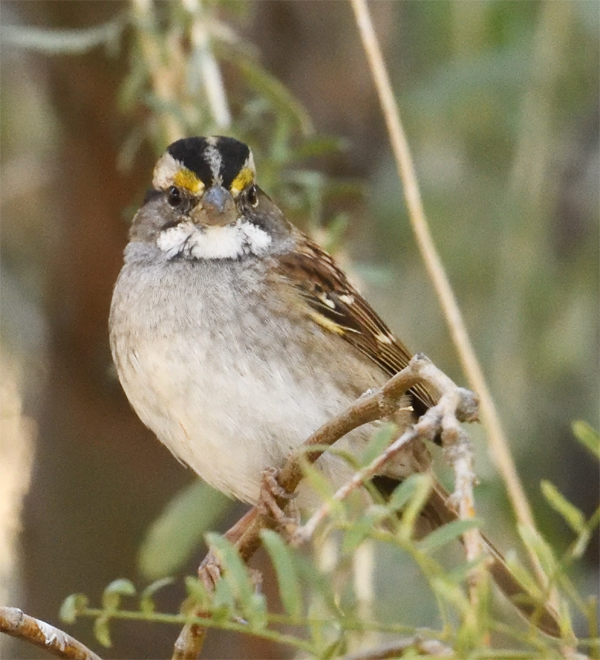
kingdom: Animalia
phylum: Chordata
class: Aves
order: Passeriformes
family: Passerellidae
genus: Zonotrichia
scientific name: Zonotrichia albicollis
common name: White-throated sparrow
